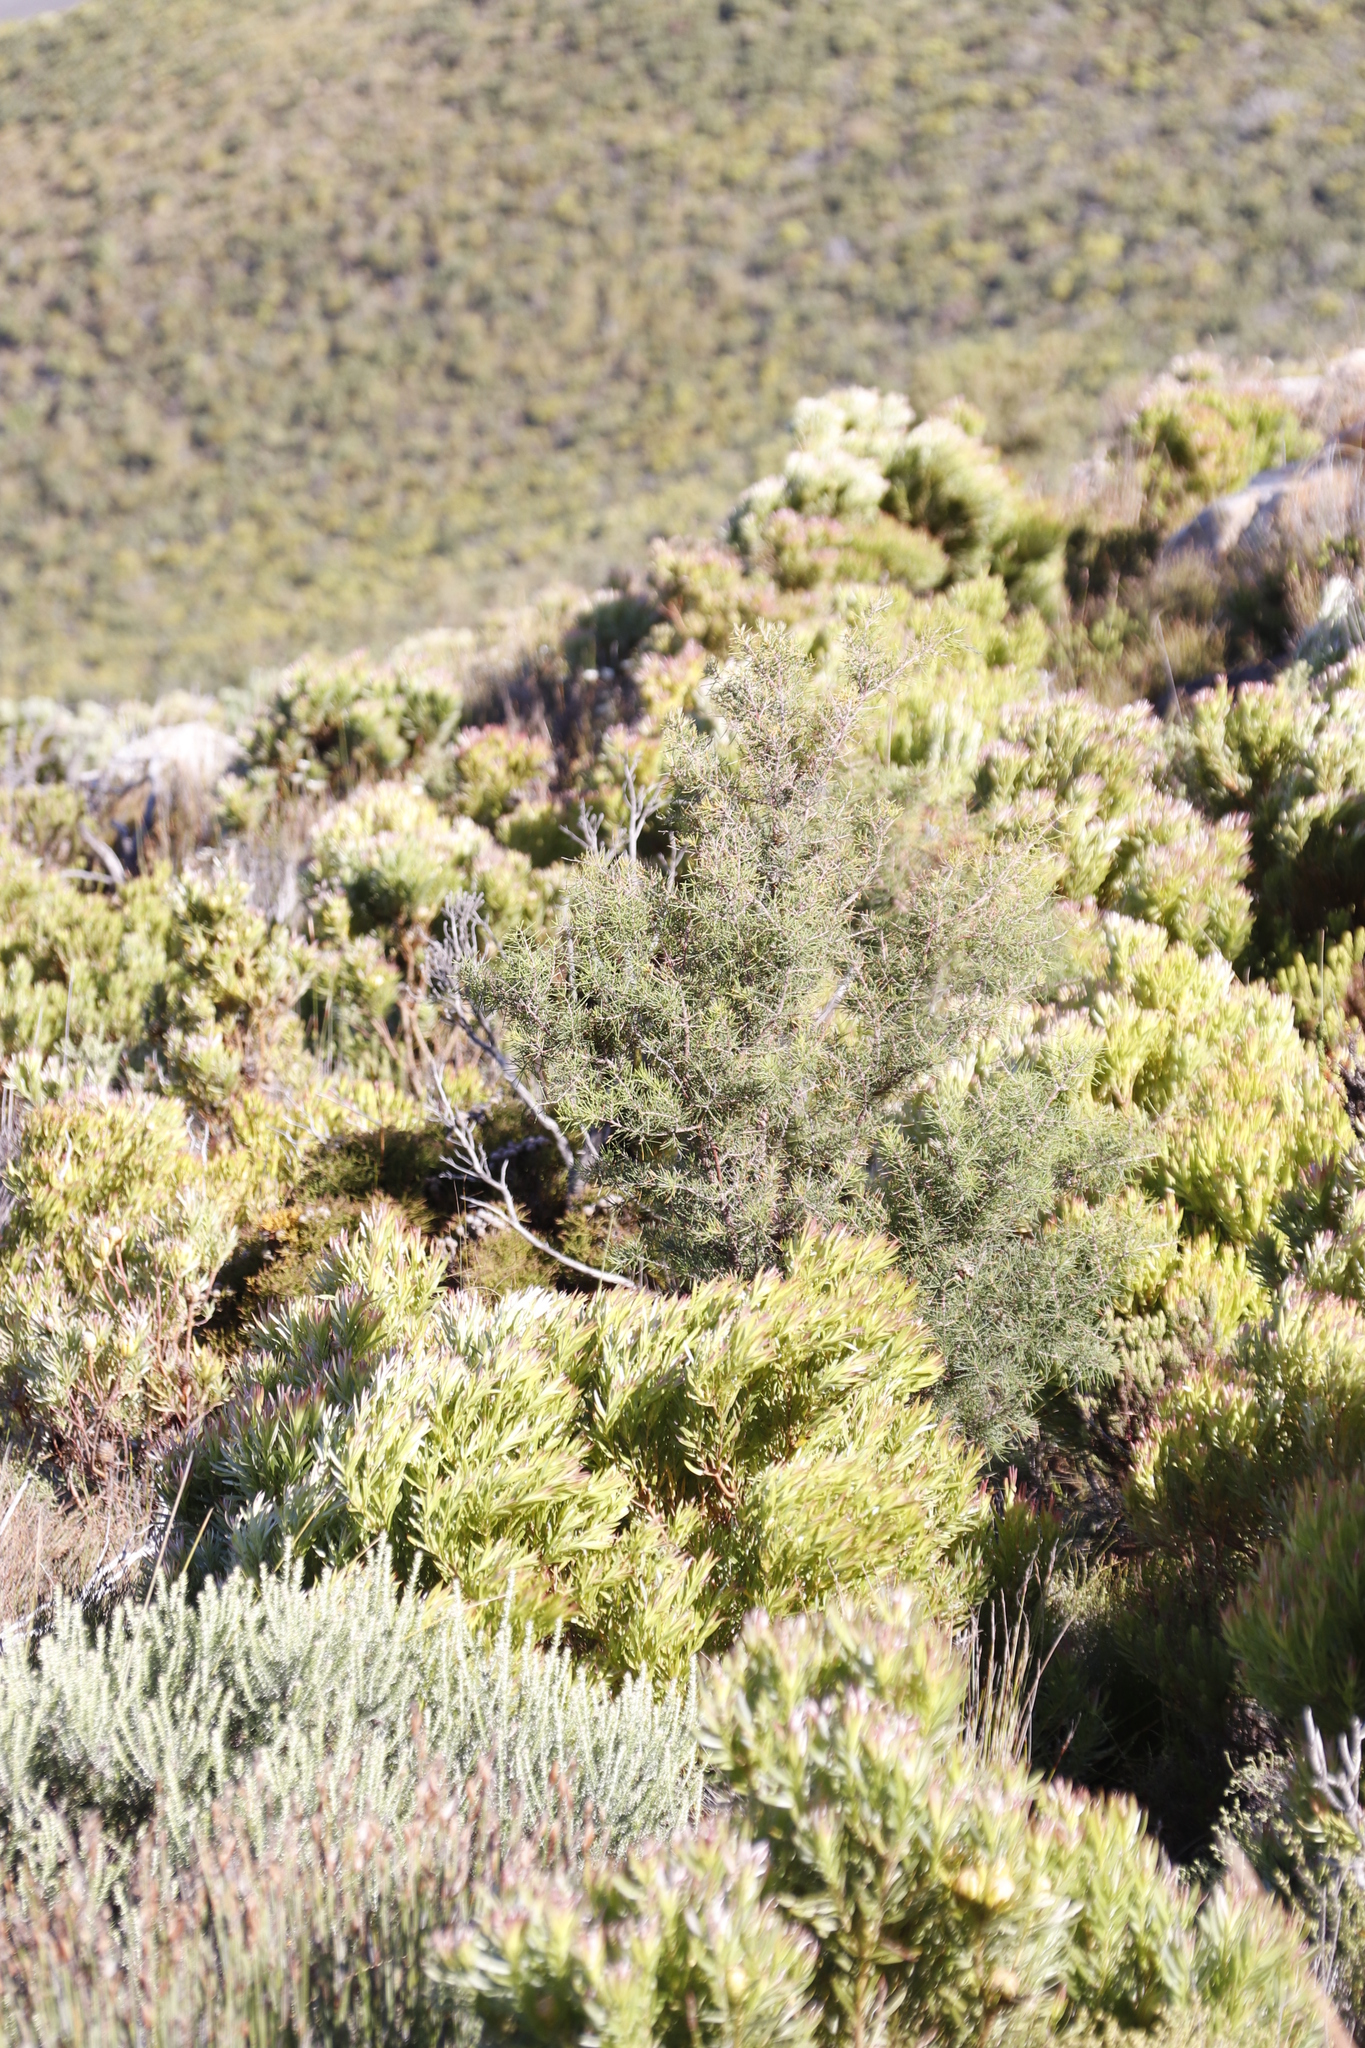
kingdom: Plantae
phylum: Tracheophyta
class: Magnoliopsida
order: Proteales
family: Proteaceae
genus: Hakea
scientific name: Hakea sericea
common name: Needle bush
